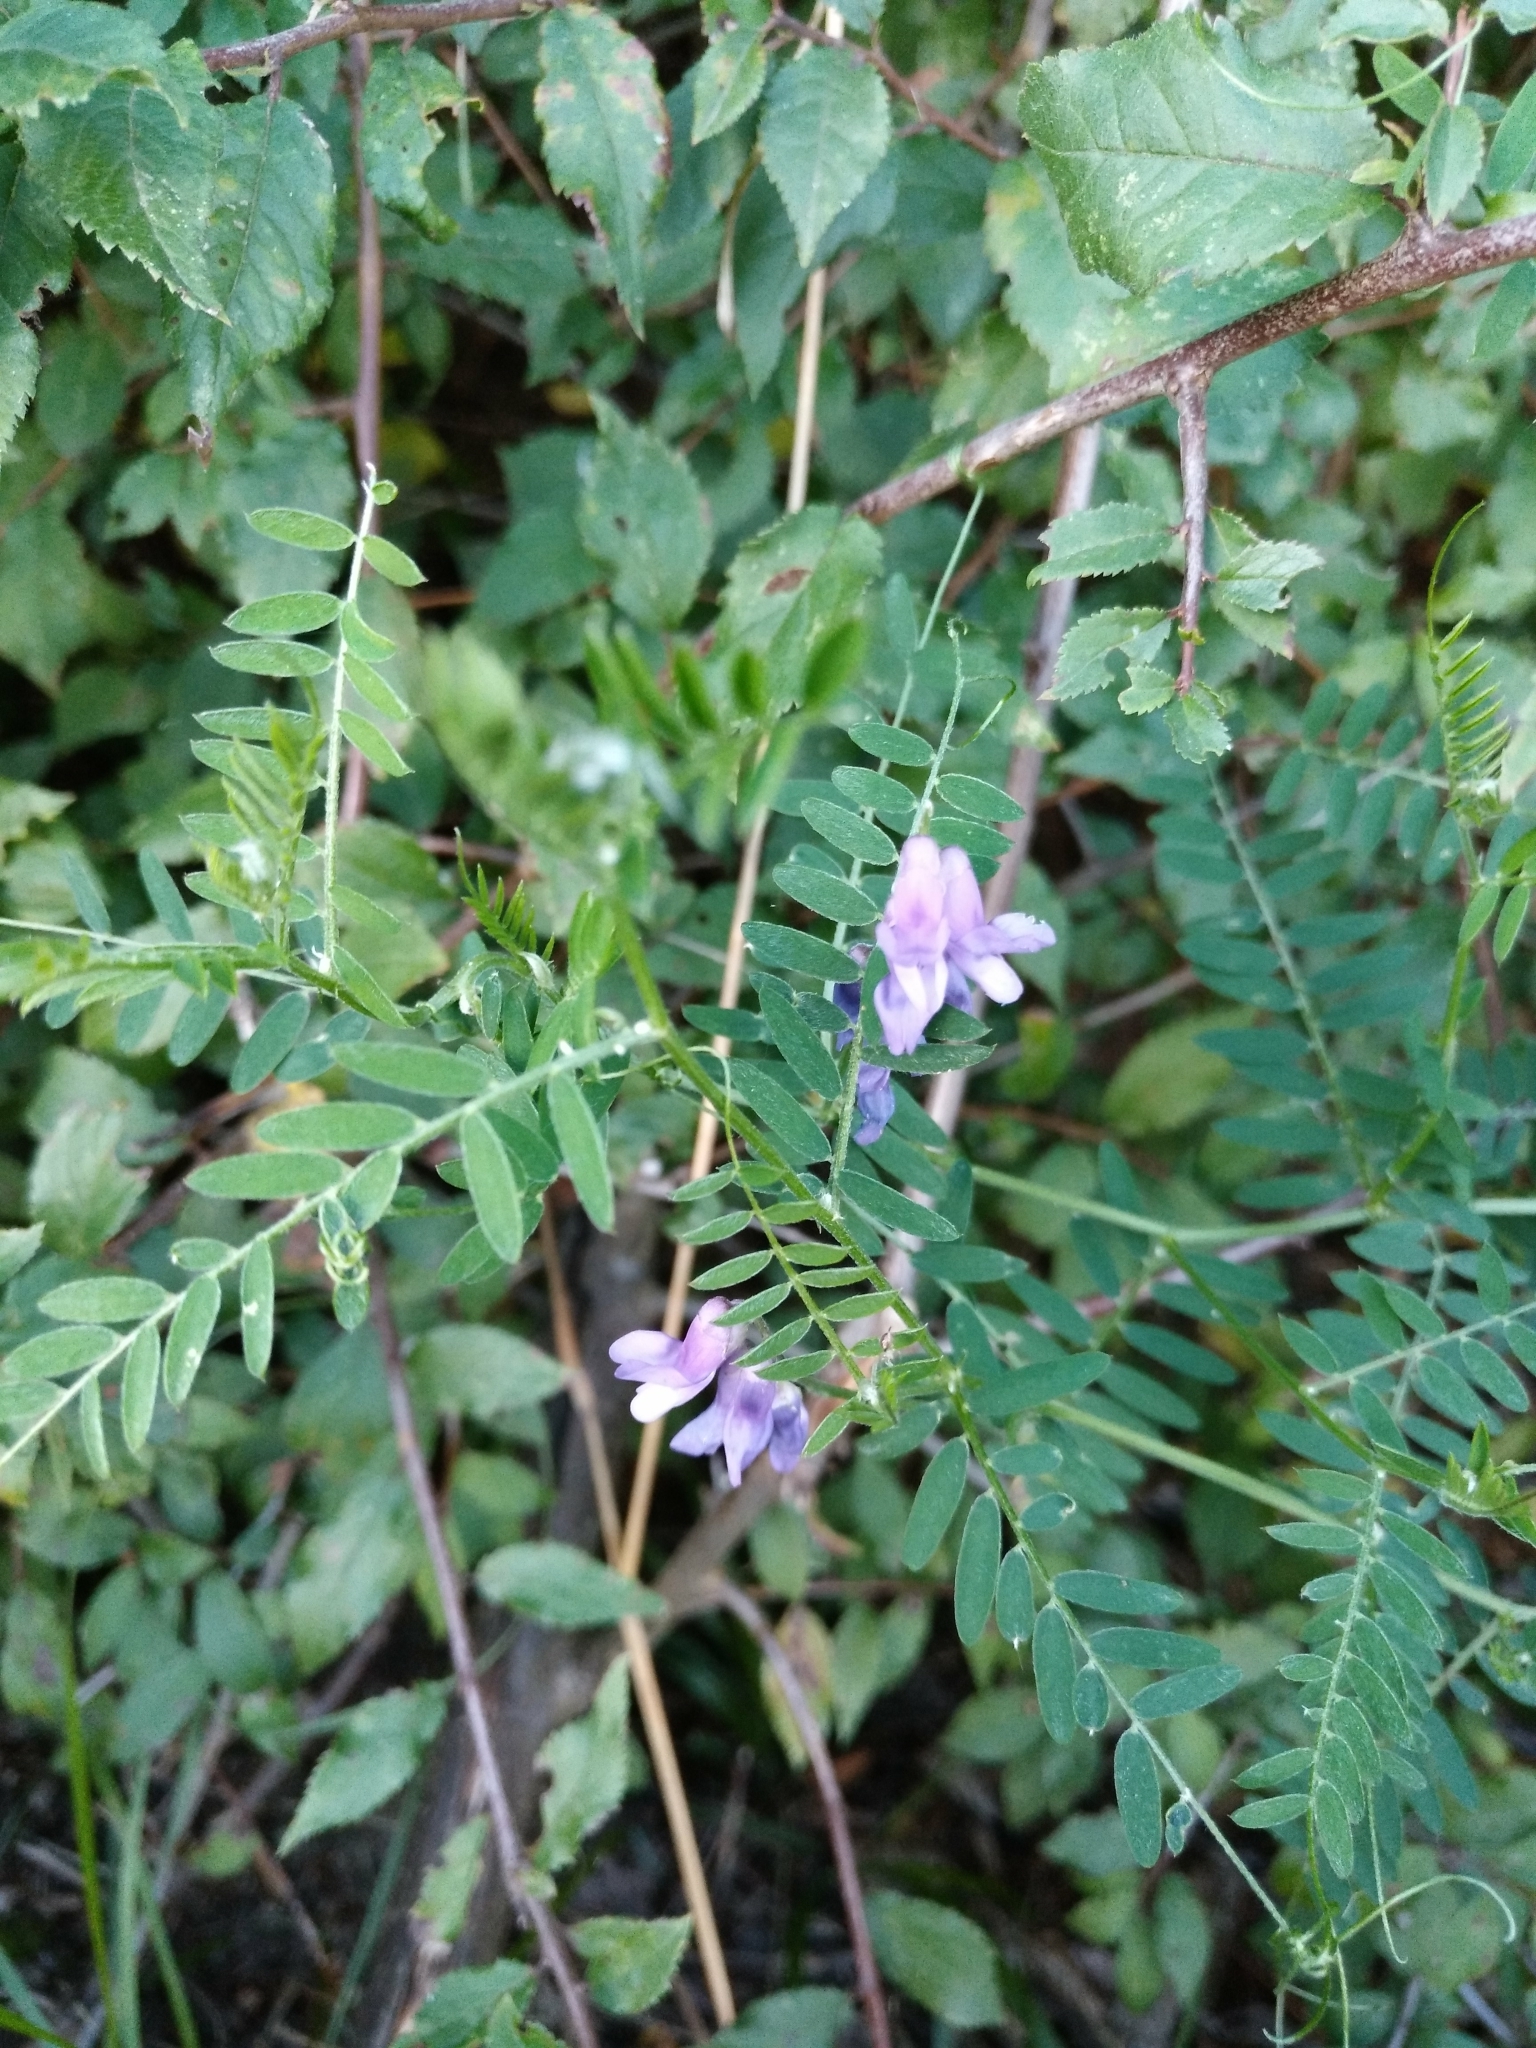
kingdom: Plantae
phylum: Tracheophyta
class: Magnoliopsida
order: Fabales
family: Fabaceae
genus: Vicia
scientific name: Vicia cracca
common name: Bird vetch
